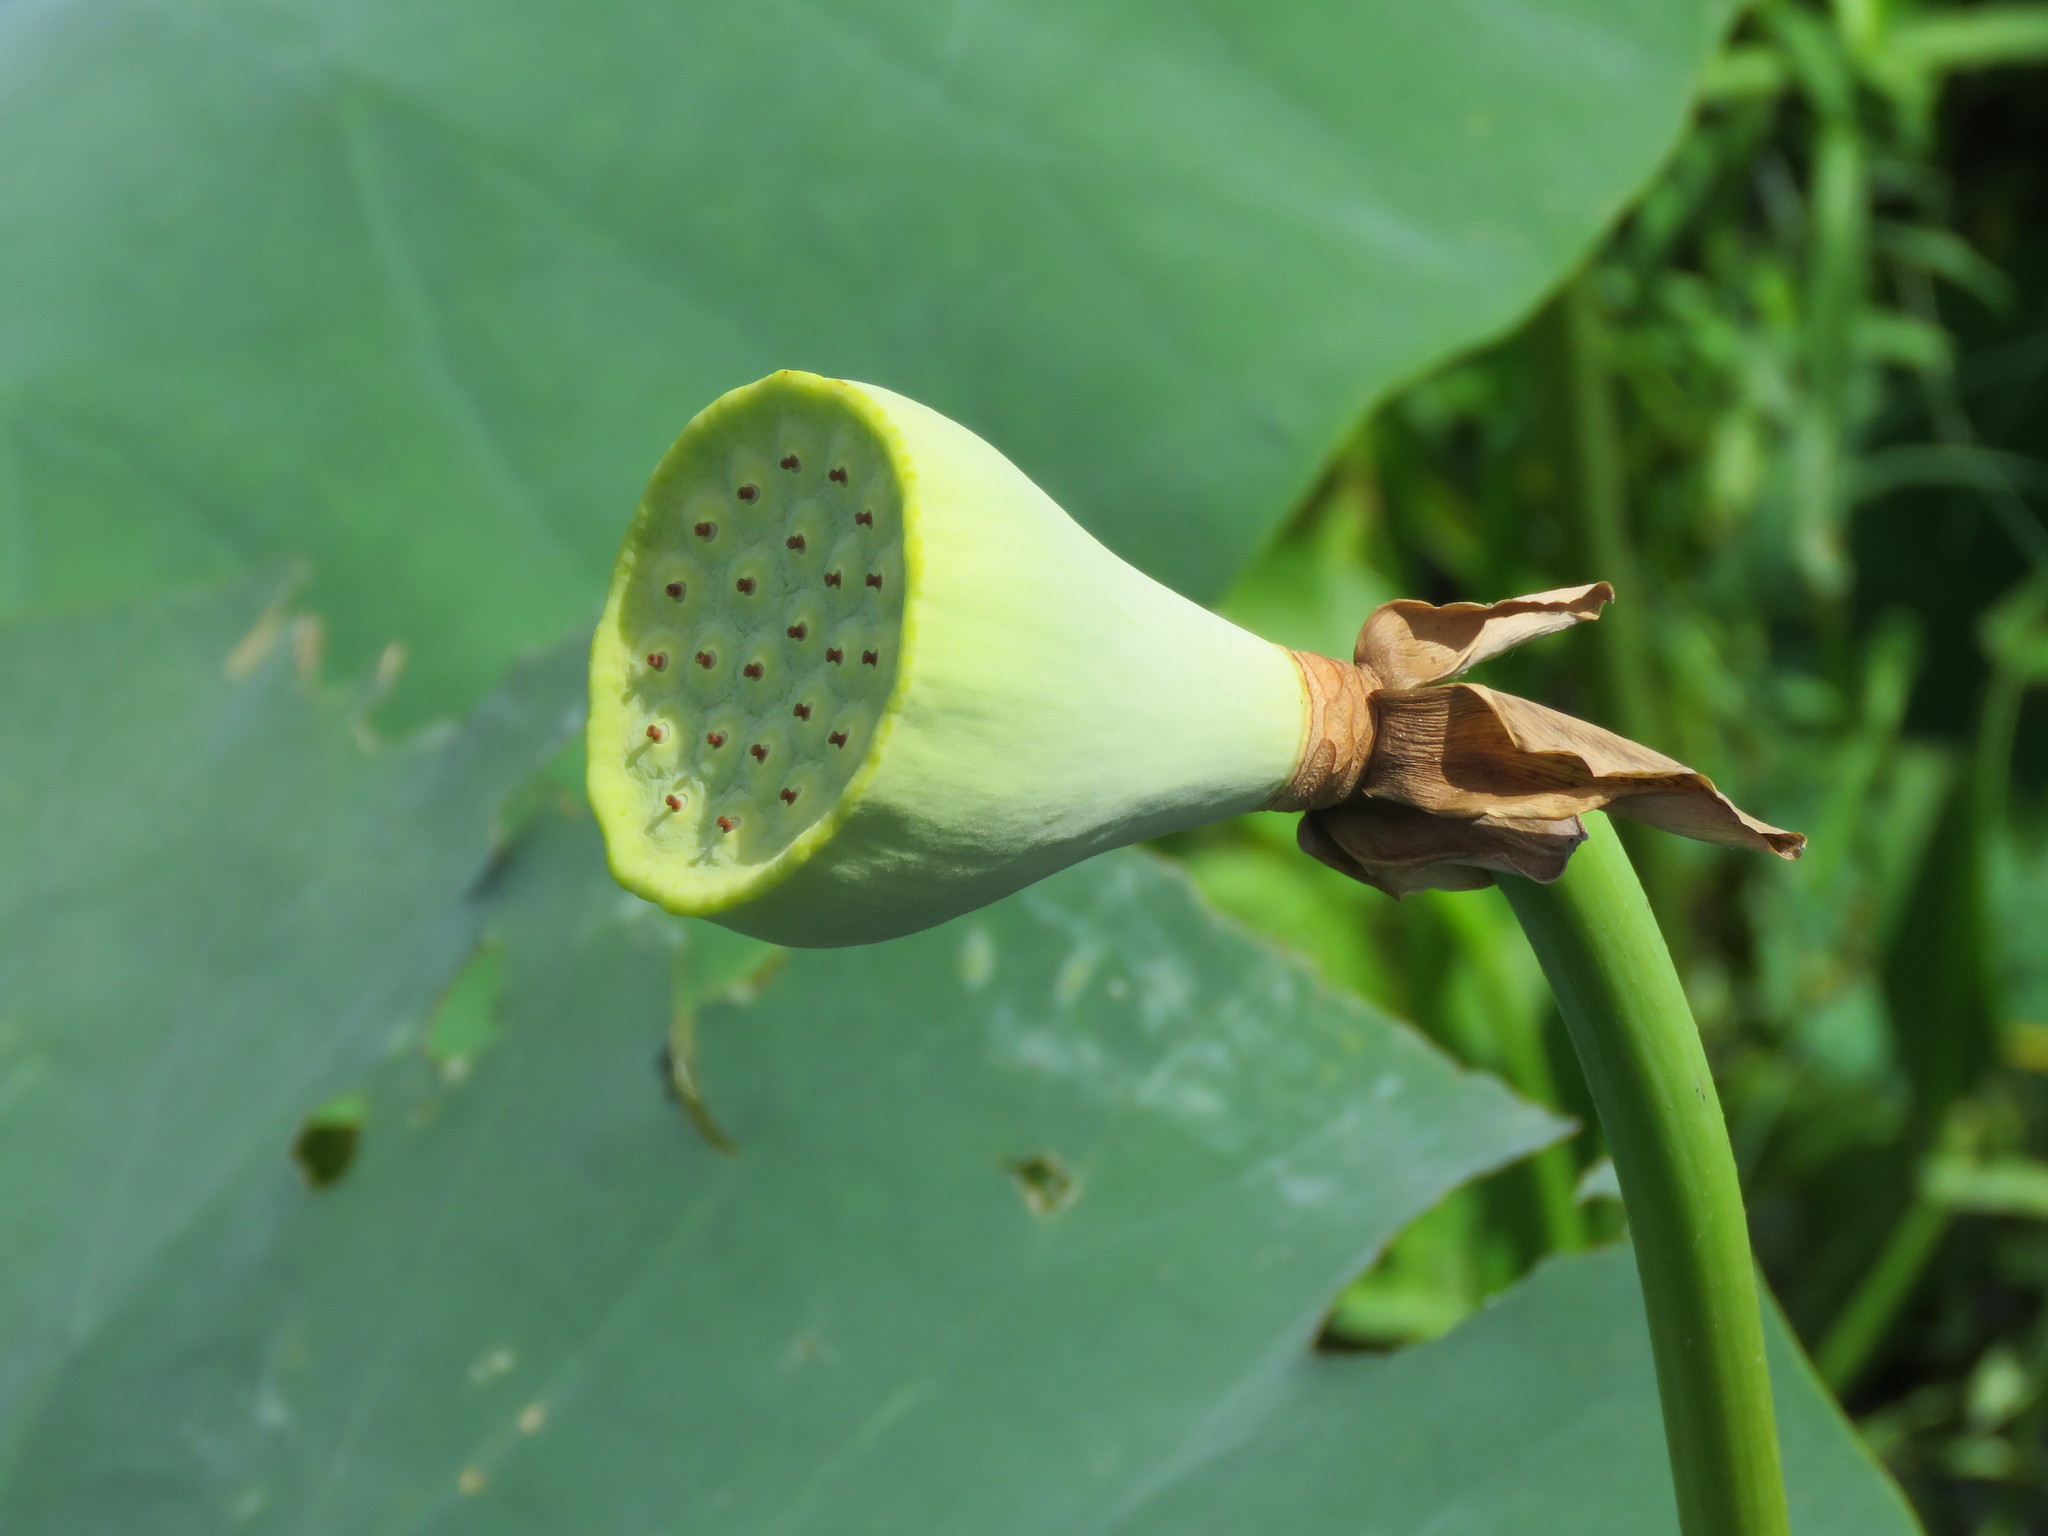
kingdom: Plantae
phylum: Tracheophyta
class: Magnoliopsida
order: Proteales
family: Nelumbonaceae
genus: Nelumbo
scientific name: Nelumbo lutea
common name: American lotus
